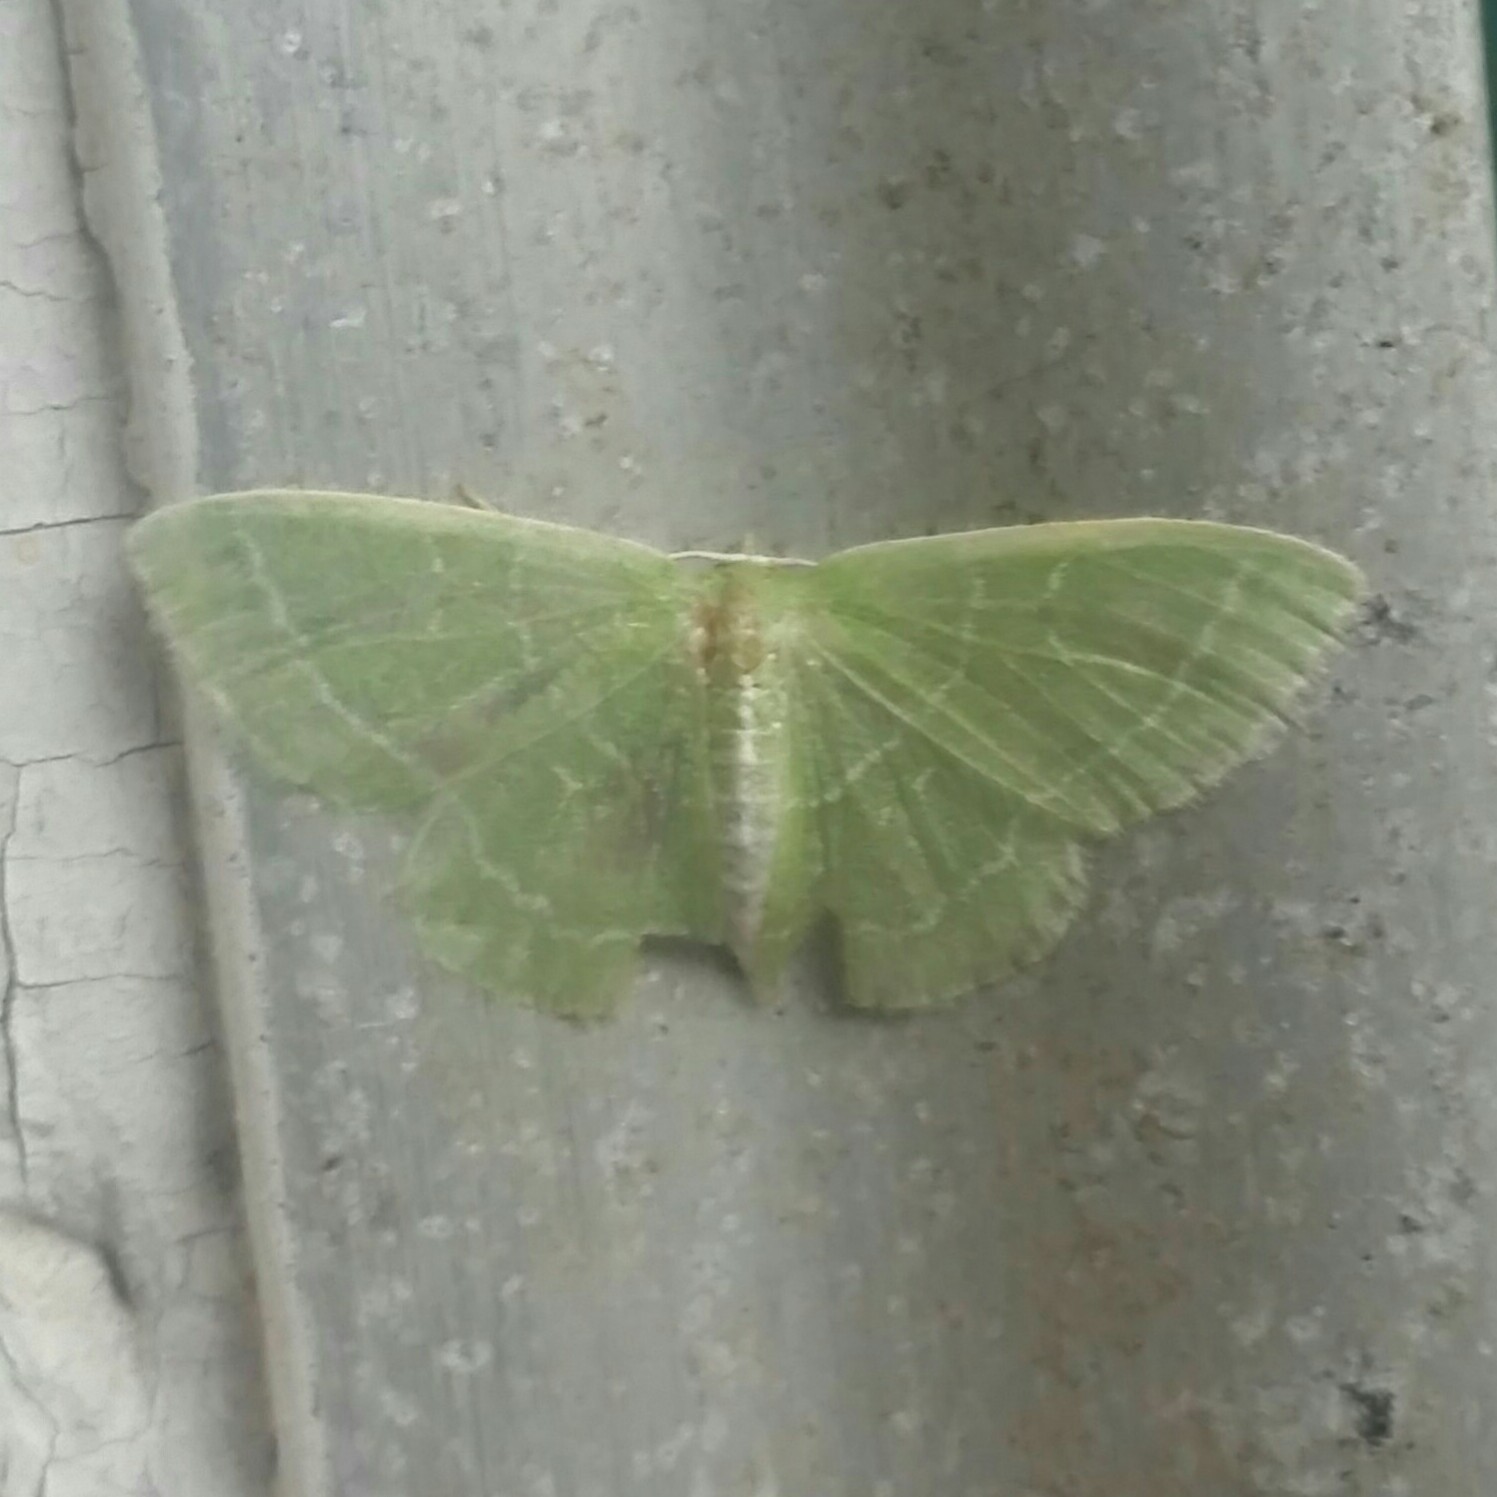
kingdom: Animalia
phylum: Arthropoda
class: Insecta
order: Lepidoptera
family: Geometridae
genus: Synchlora
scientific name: Synchlora aerata
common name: Wavy-lined emerald
